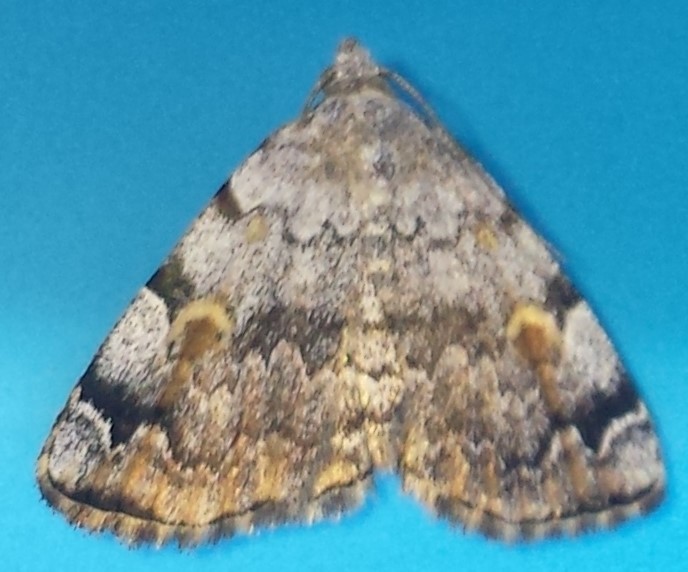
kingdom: Animalia
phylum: Arthropoda
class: Insecta
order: Lepidoptera
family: Erebidae
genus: Idia
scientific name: Idia americalis
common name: American idia moth
